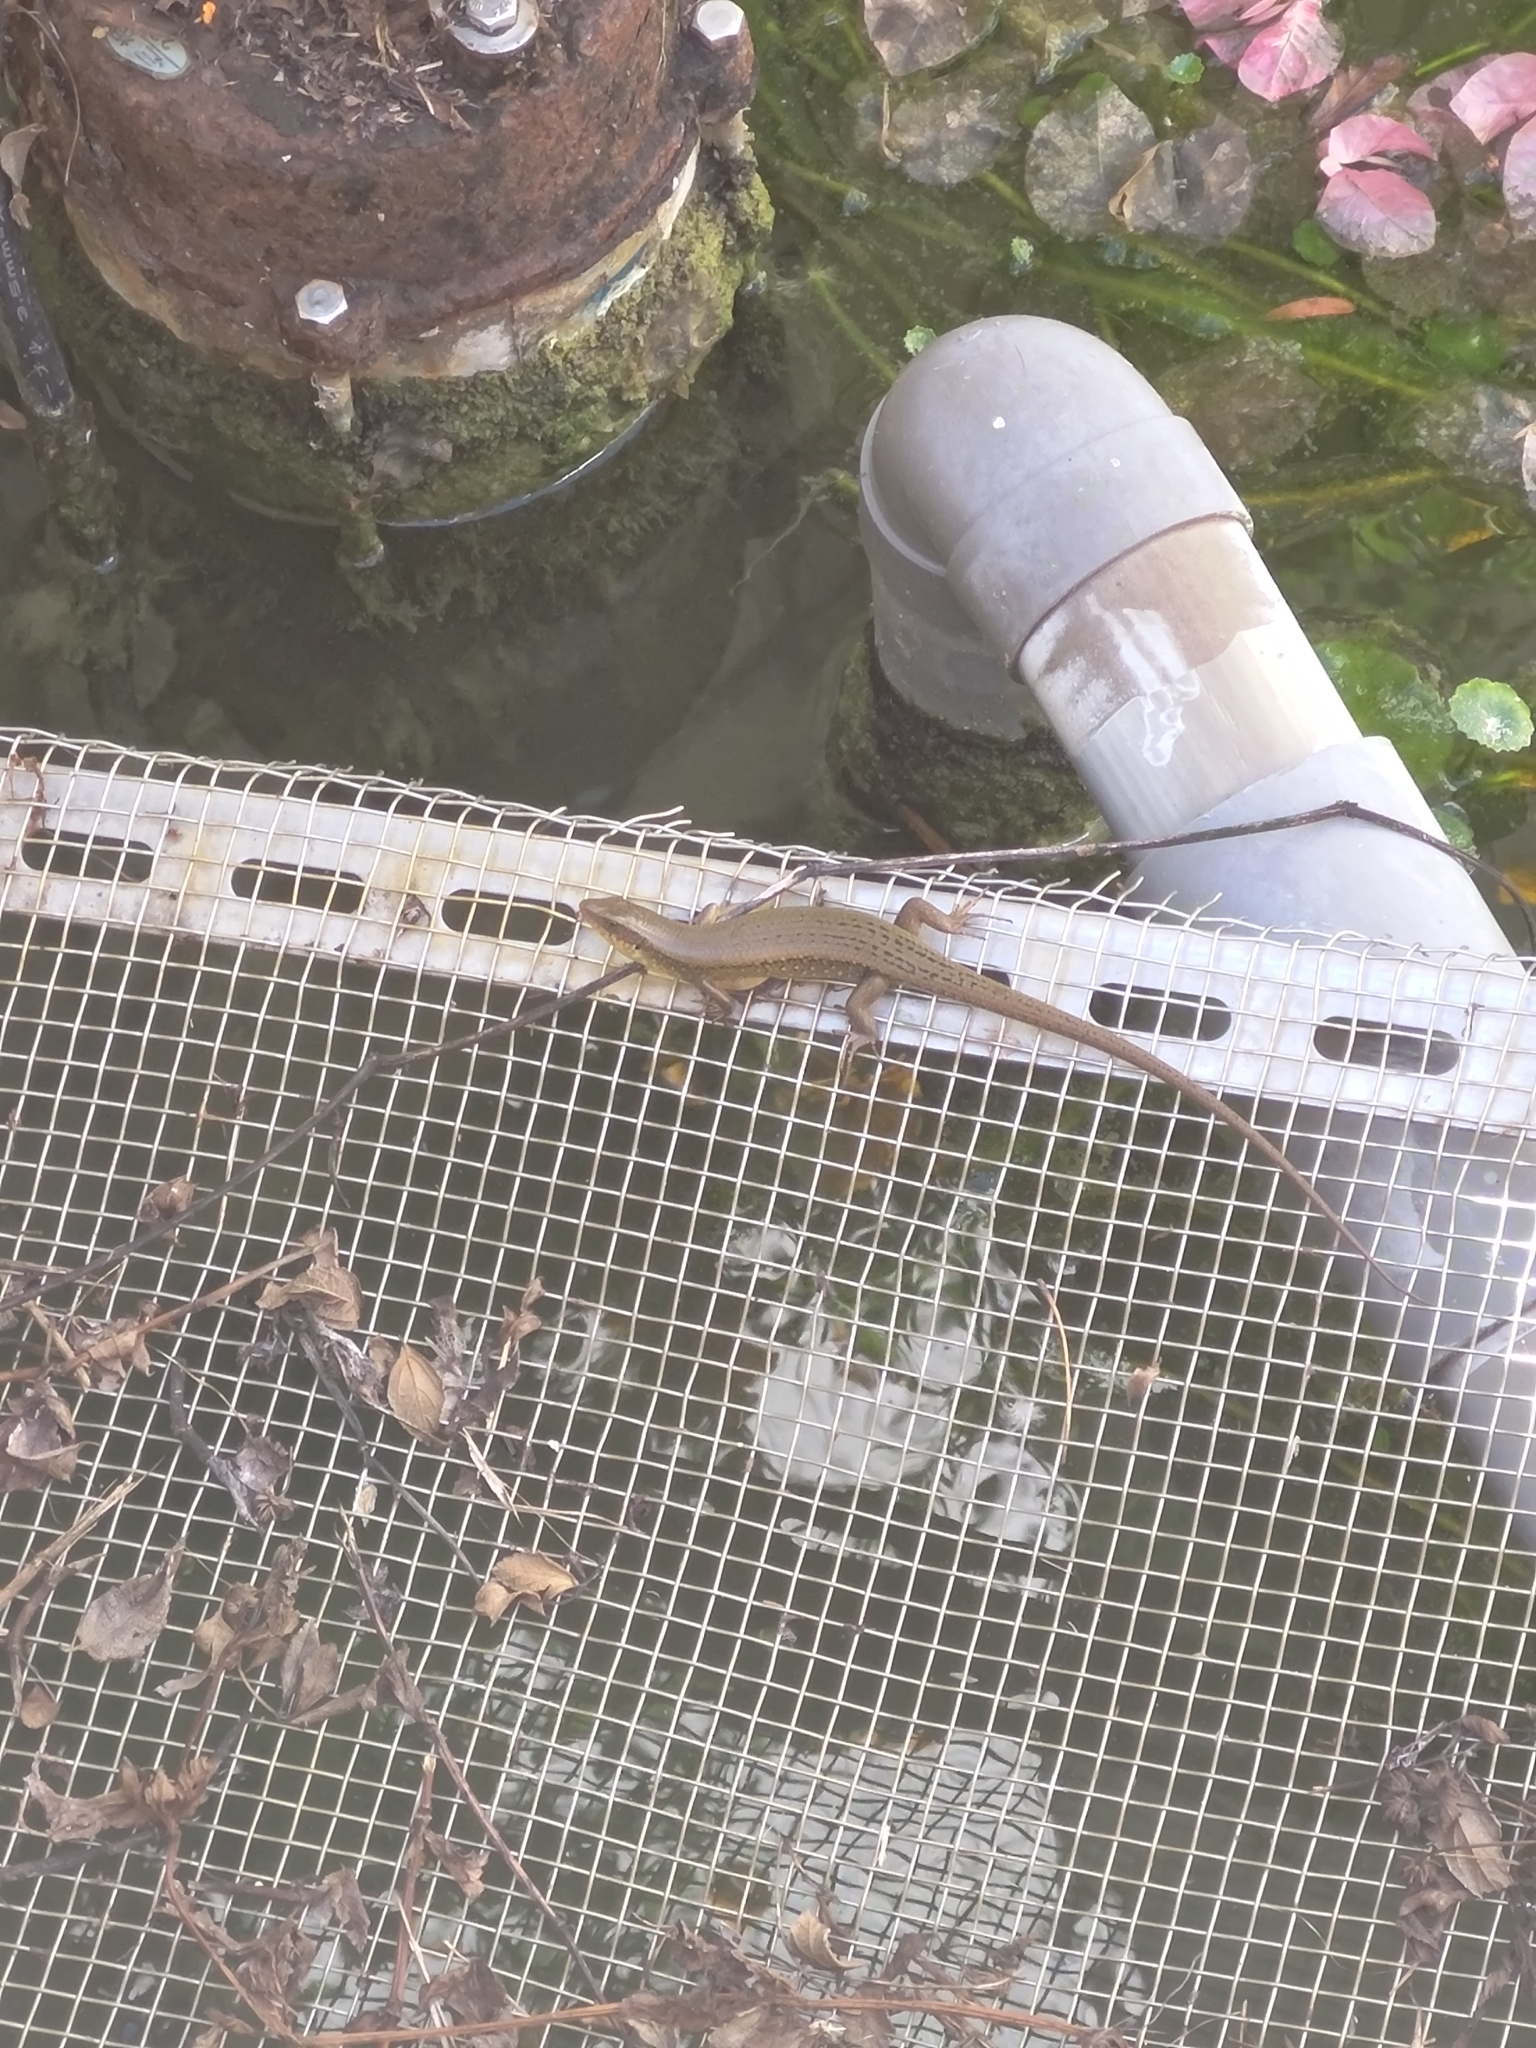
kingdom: Animalia
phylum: Chordata
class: Squamata
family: Scincidae
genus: Eutropis
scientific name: Eutropis multifasciata
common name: Common mabuya
